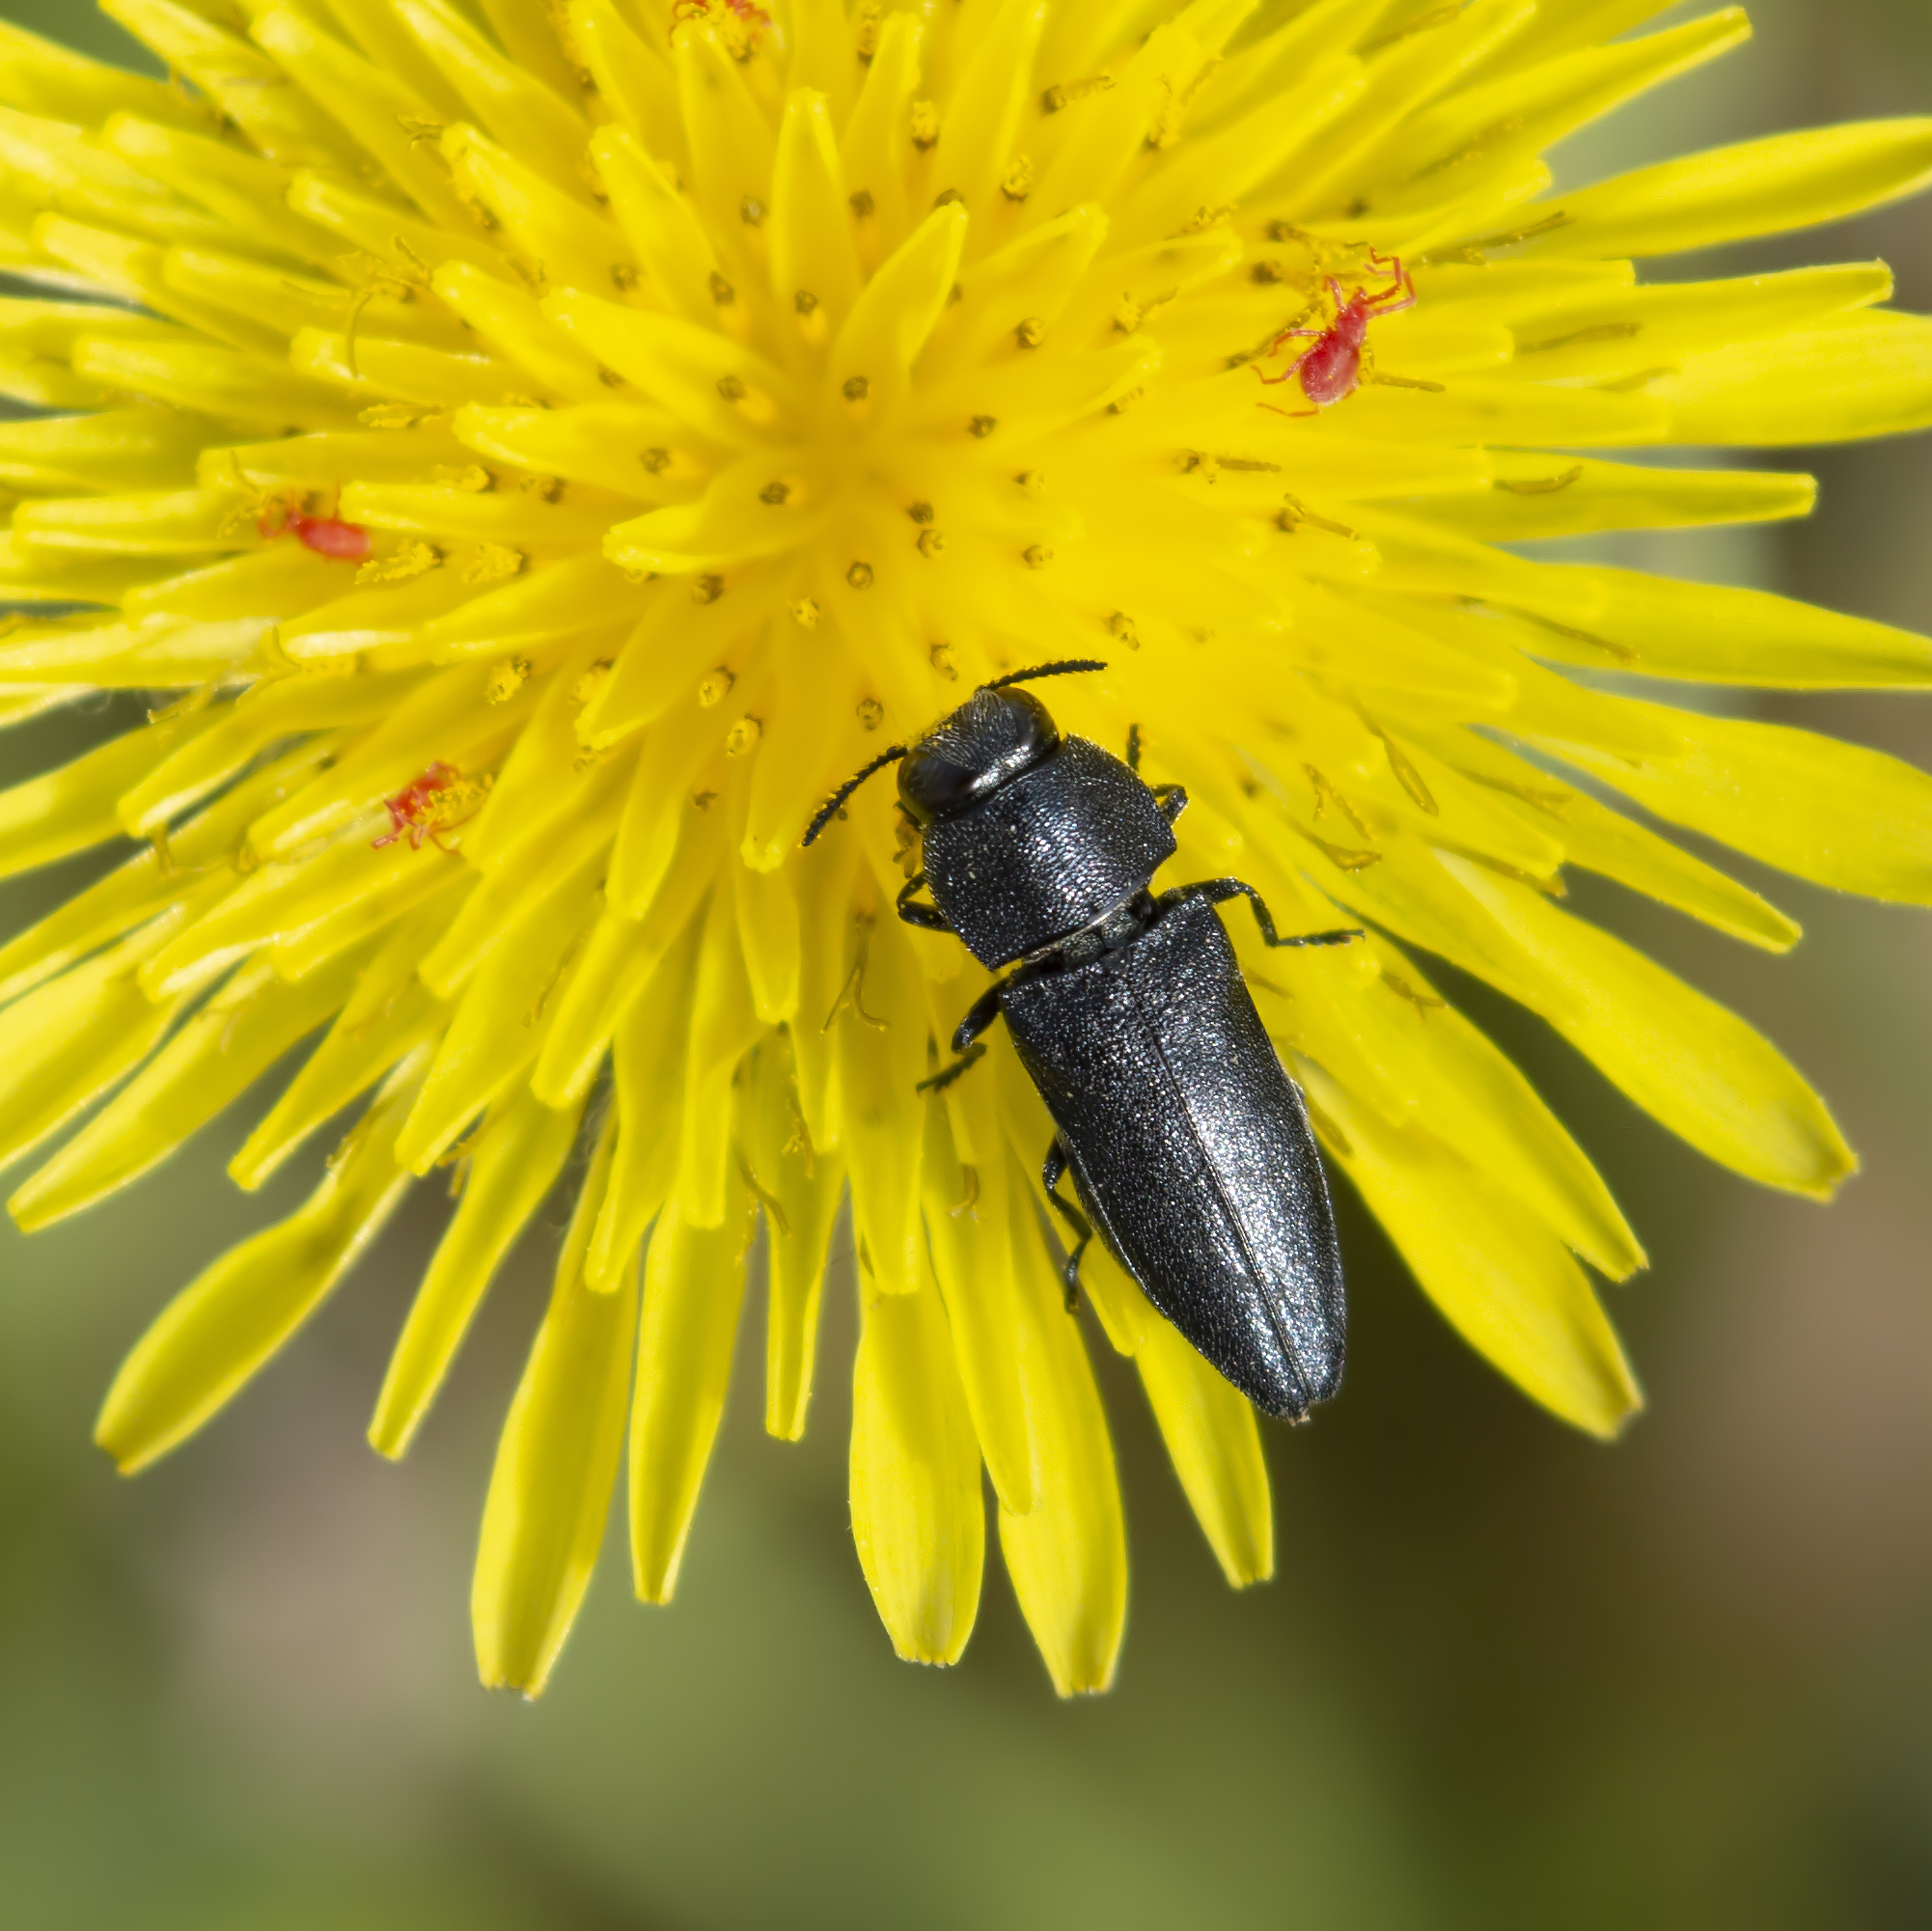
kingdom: Animalia
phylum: Arthropoda
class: Insecta
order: Coleoptera
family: Buprestidae
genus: Anthaxia
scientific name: Anthaxia kiesenwetteri
